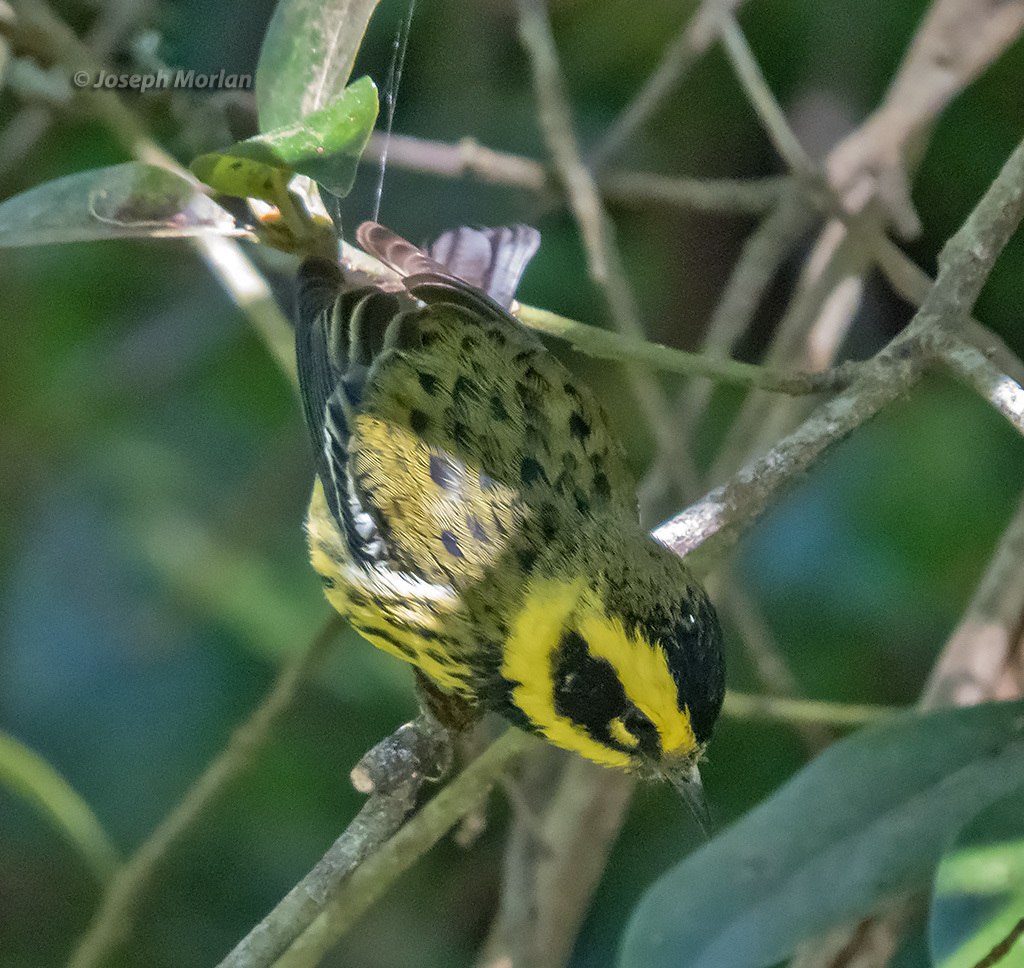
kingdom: Animalia
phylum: Chordata
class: Aves
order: Passeriformes
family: Parulidae
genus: Setophaga
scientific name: Setophaga townsendi
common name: Townsend's warbler
